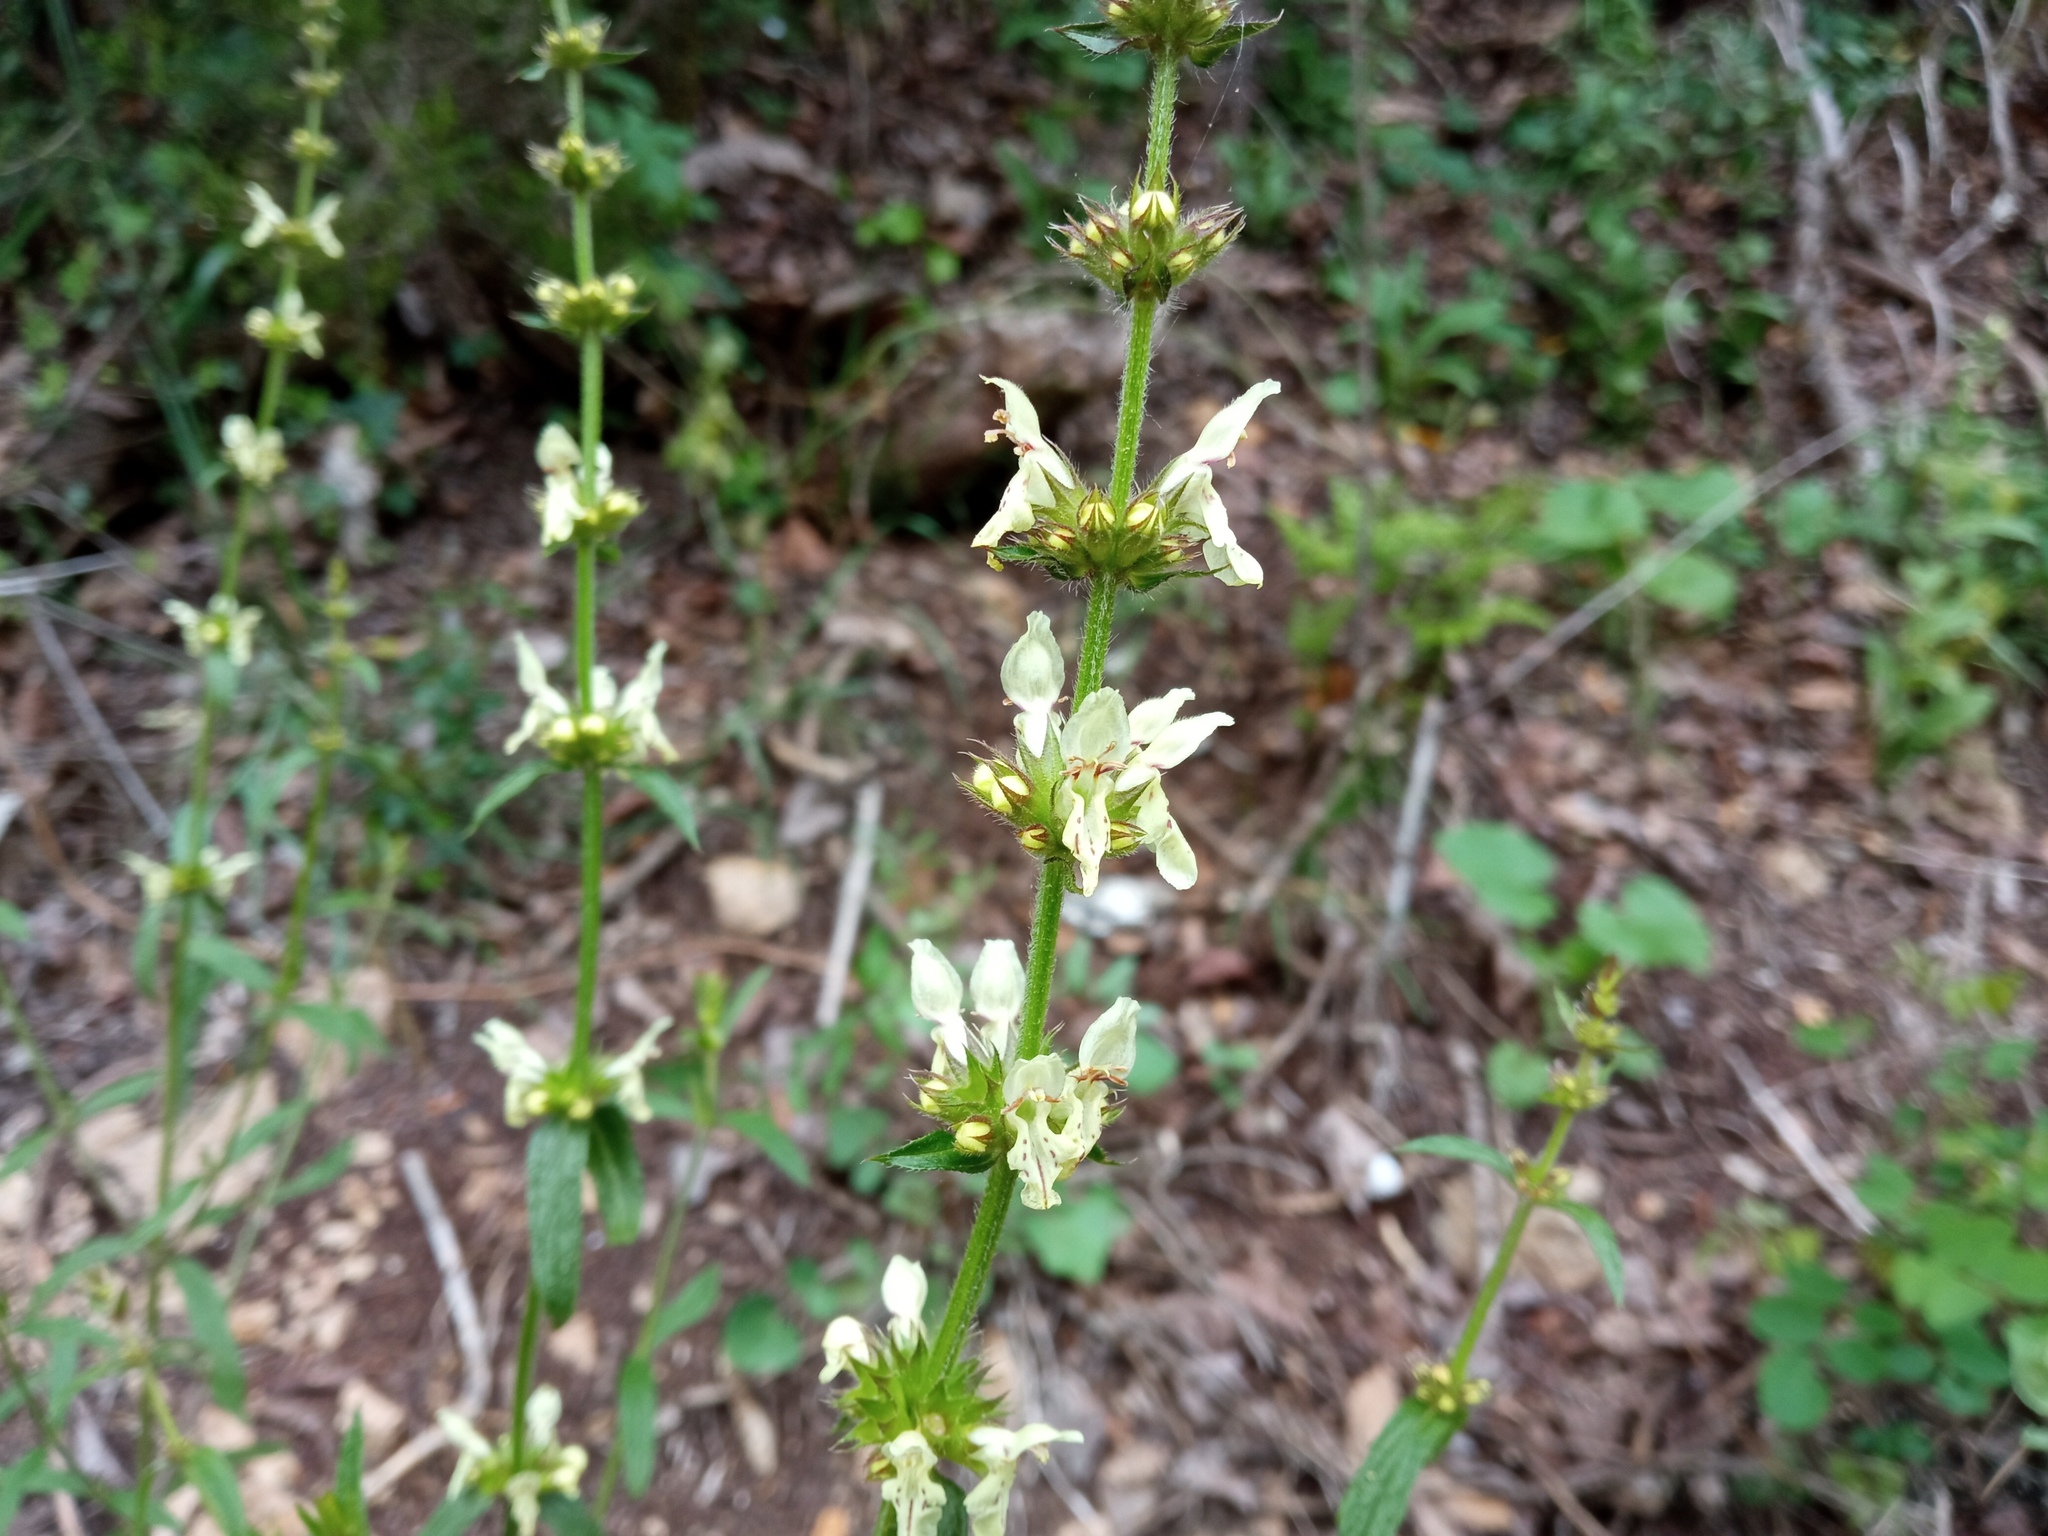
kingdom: Plantae
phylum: Tracheophyta
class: Magnoliopsida
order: Lamiales
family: Lamiaceae
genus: Stachys
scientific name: Stachys recta
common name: Perennial yellow-woundwort
